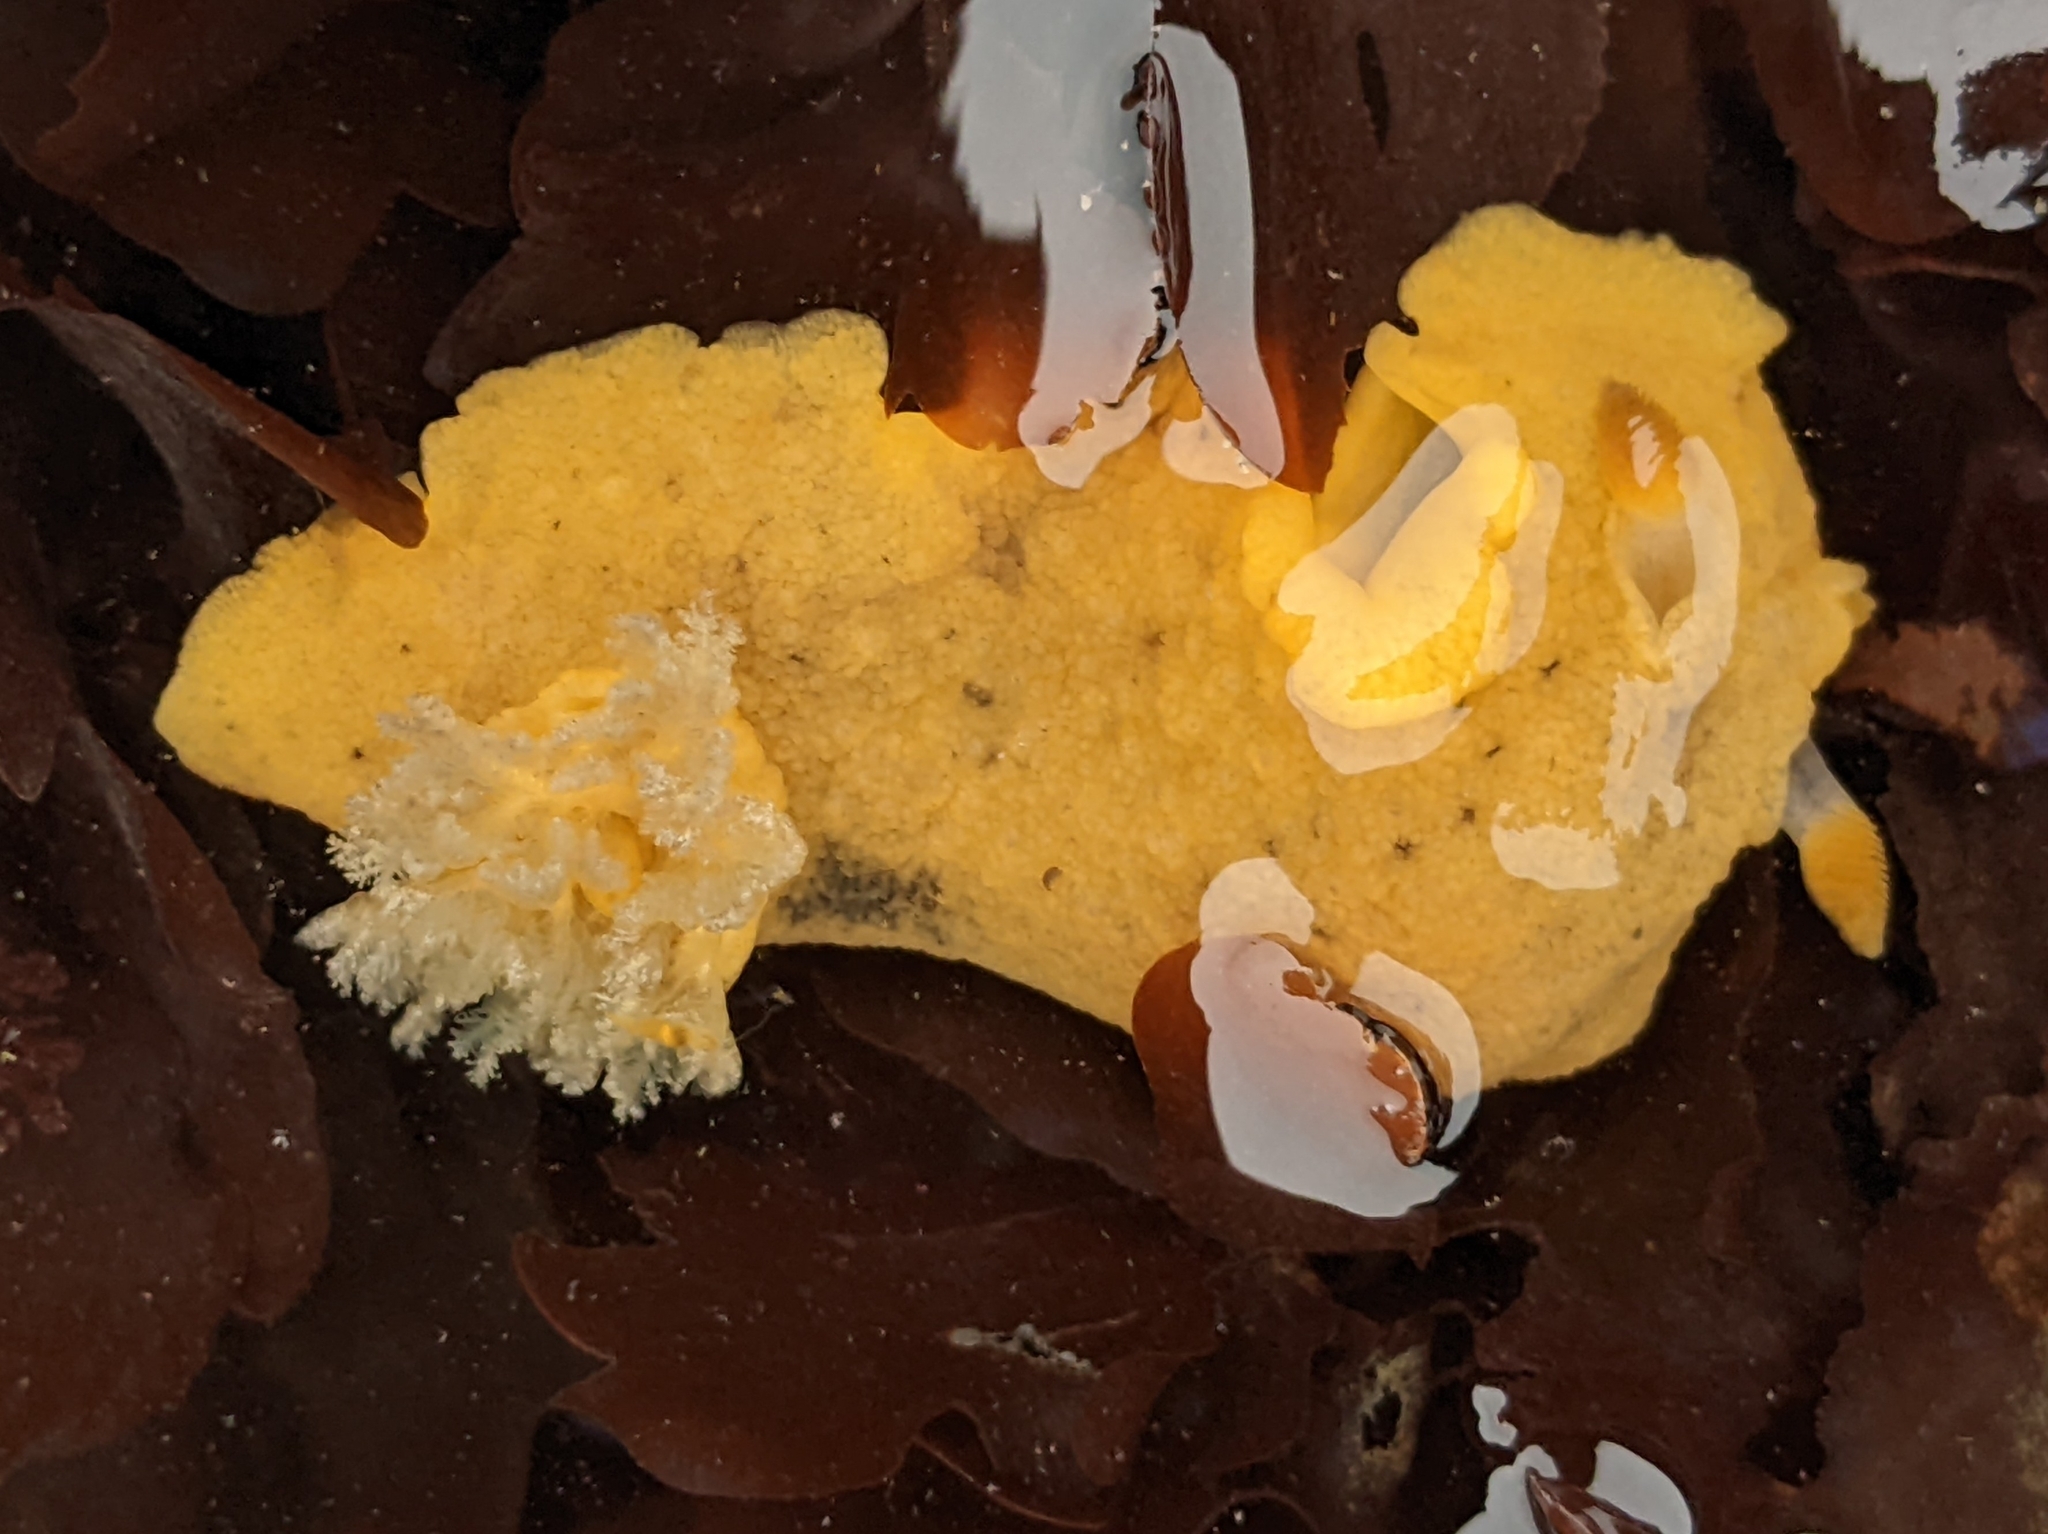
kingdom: Animalia
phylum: Mollusca
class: Gastropoda
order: Nudibranchia
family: Discodorididae
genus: Geitodoris
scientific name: Geitodoris heathi
